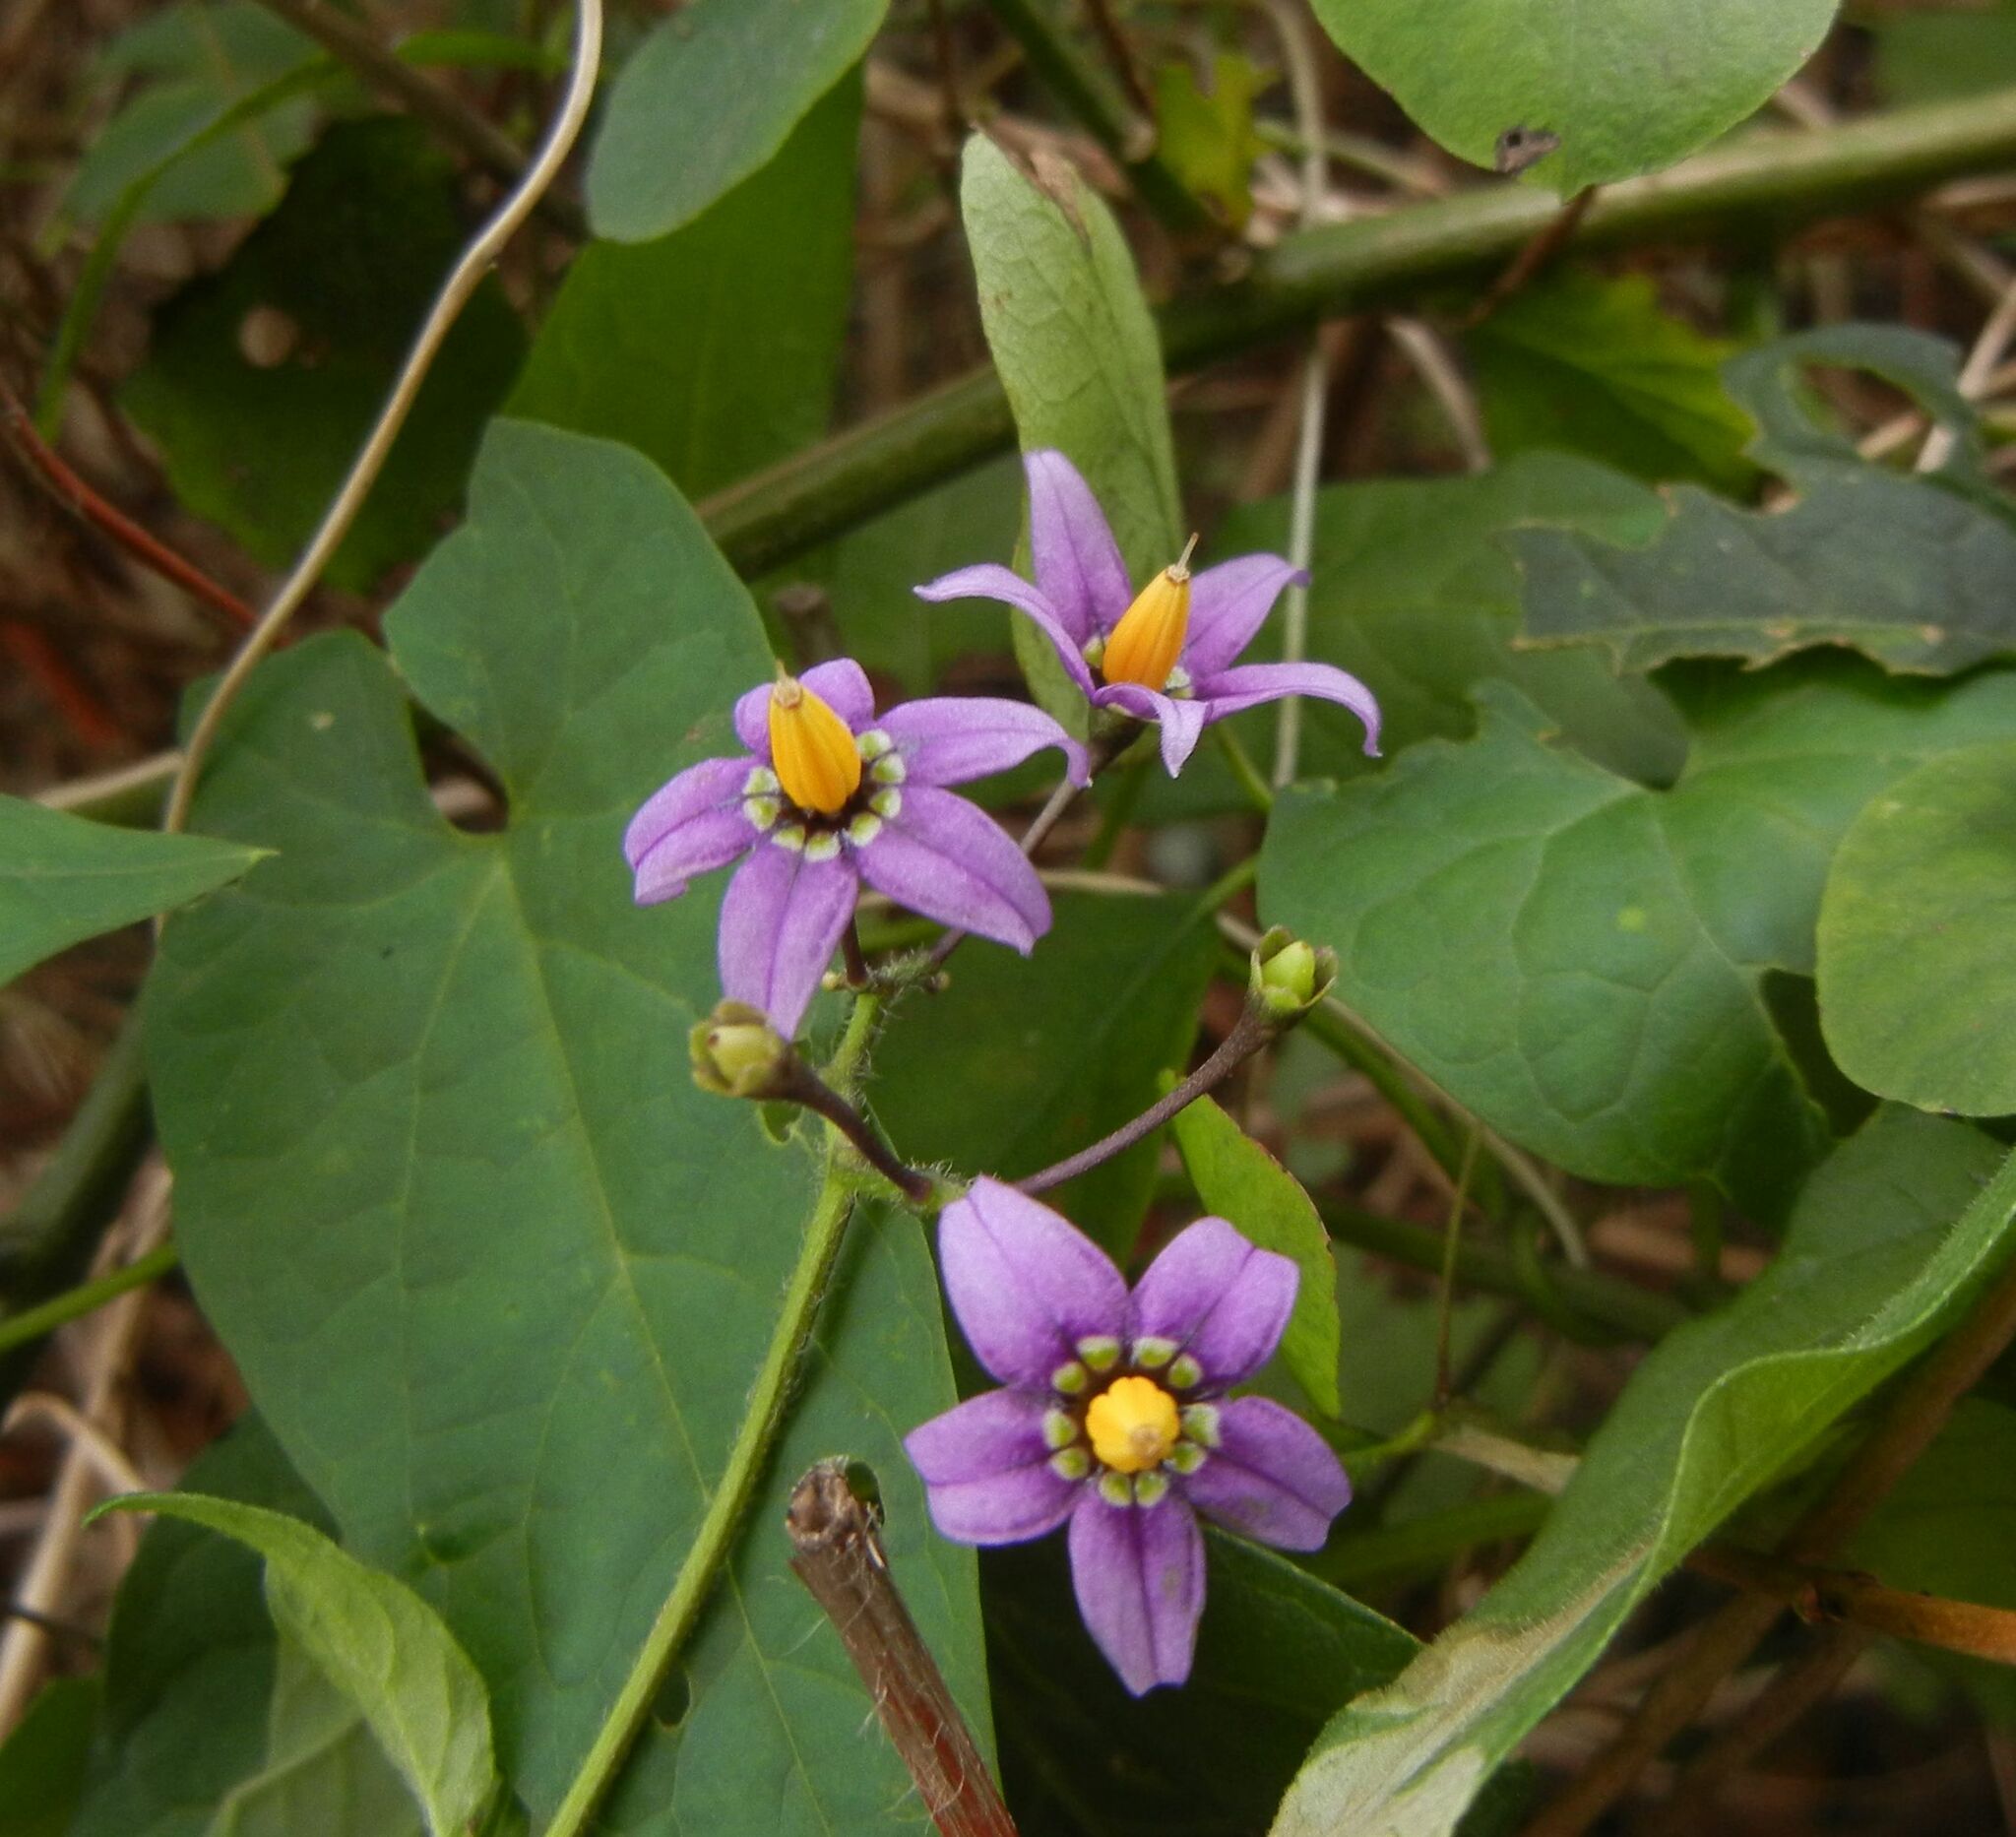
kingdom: Plantae
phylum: Tracheophyta
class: Magnoliopsida
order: Solanales
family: Solanaceae
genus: Solanum
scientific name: Solanum dulcamara
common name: Climbing nightshade
